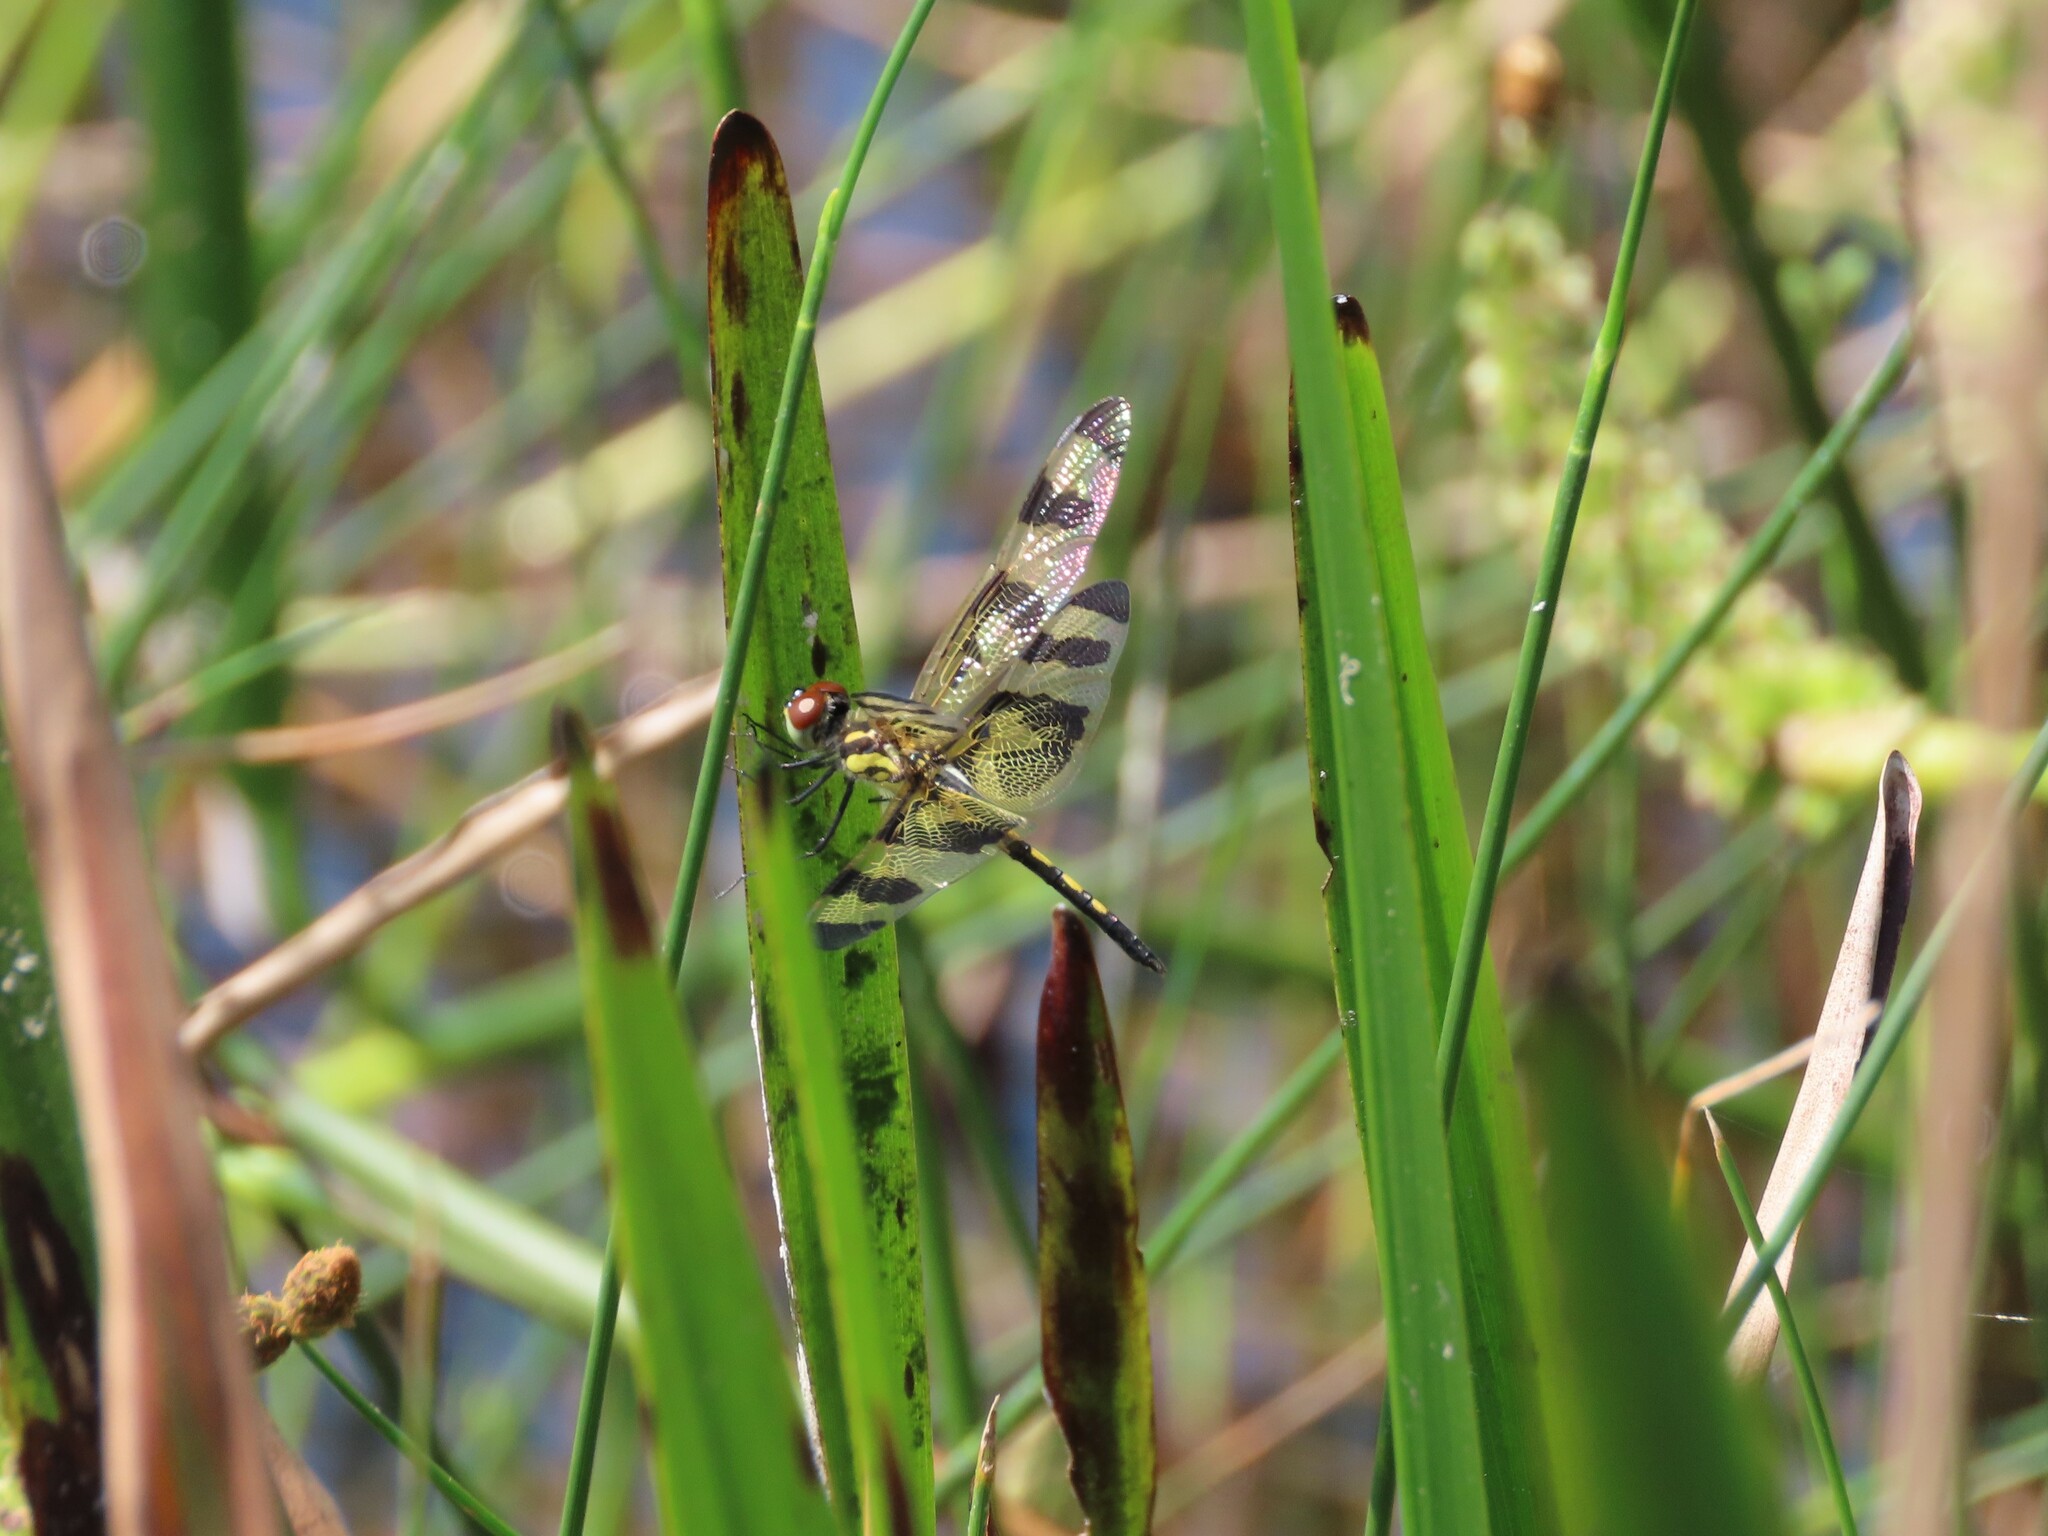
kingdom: Animalia
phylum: Arthropoda
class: Insecta
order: Odonata
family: Libellulidae
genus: Celithemis
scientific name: Celithemis eponina
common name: Halloween pennant
